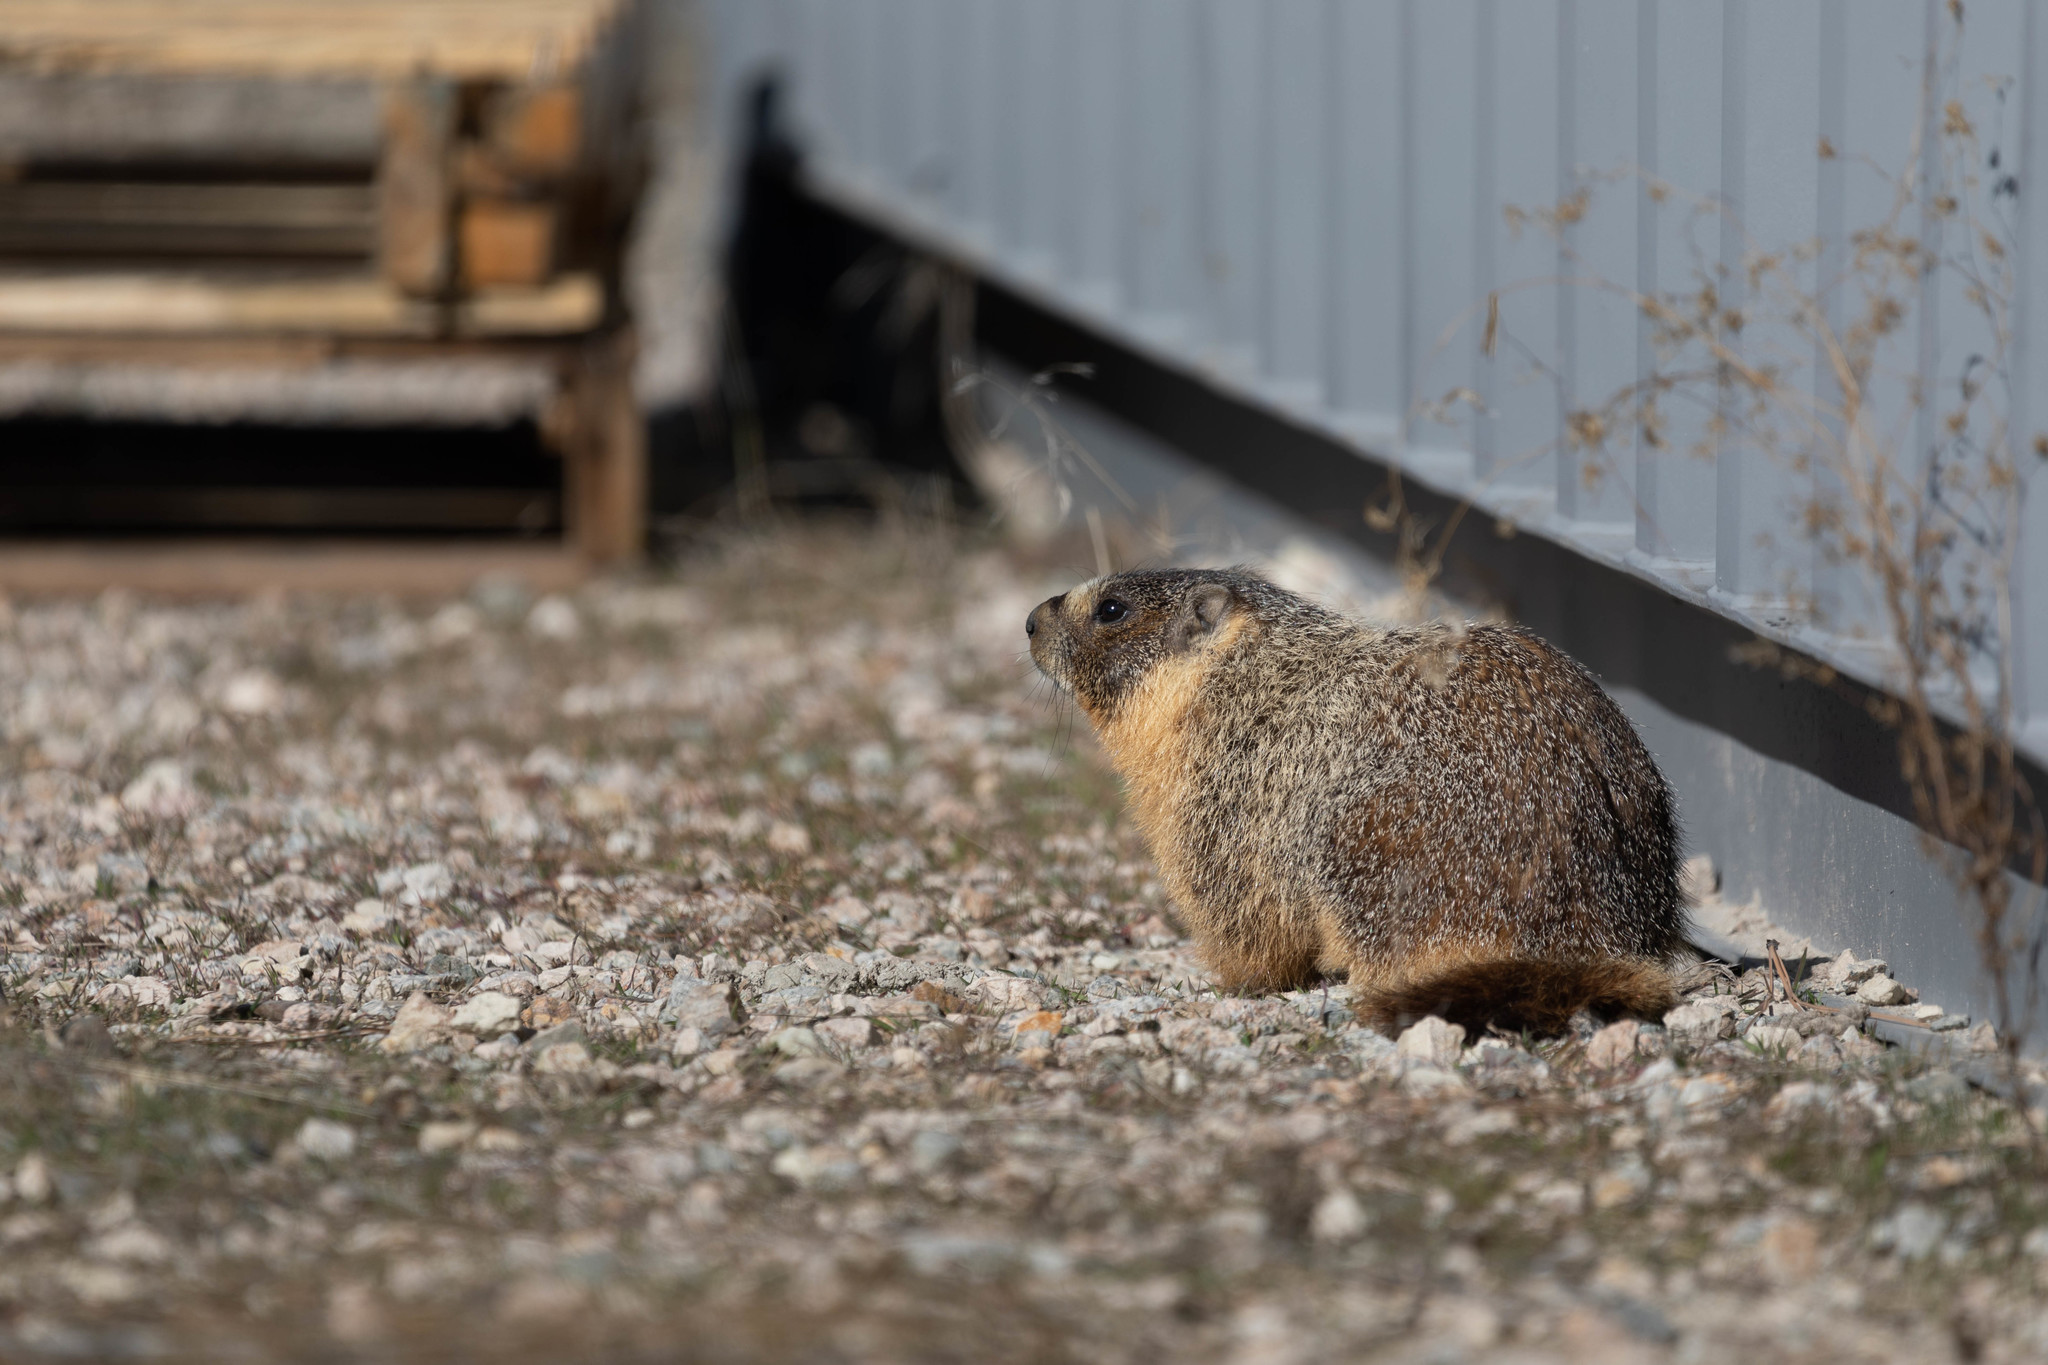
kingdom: Animalia
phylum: Chordata
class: Mammalia
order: Rodentia
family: Sciuridae
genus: Marmota
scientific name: Marmota flaviventris
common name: Yellow-bellied marmot
